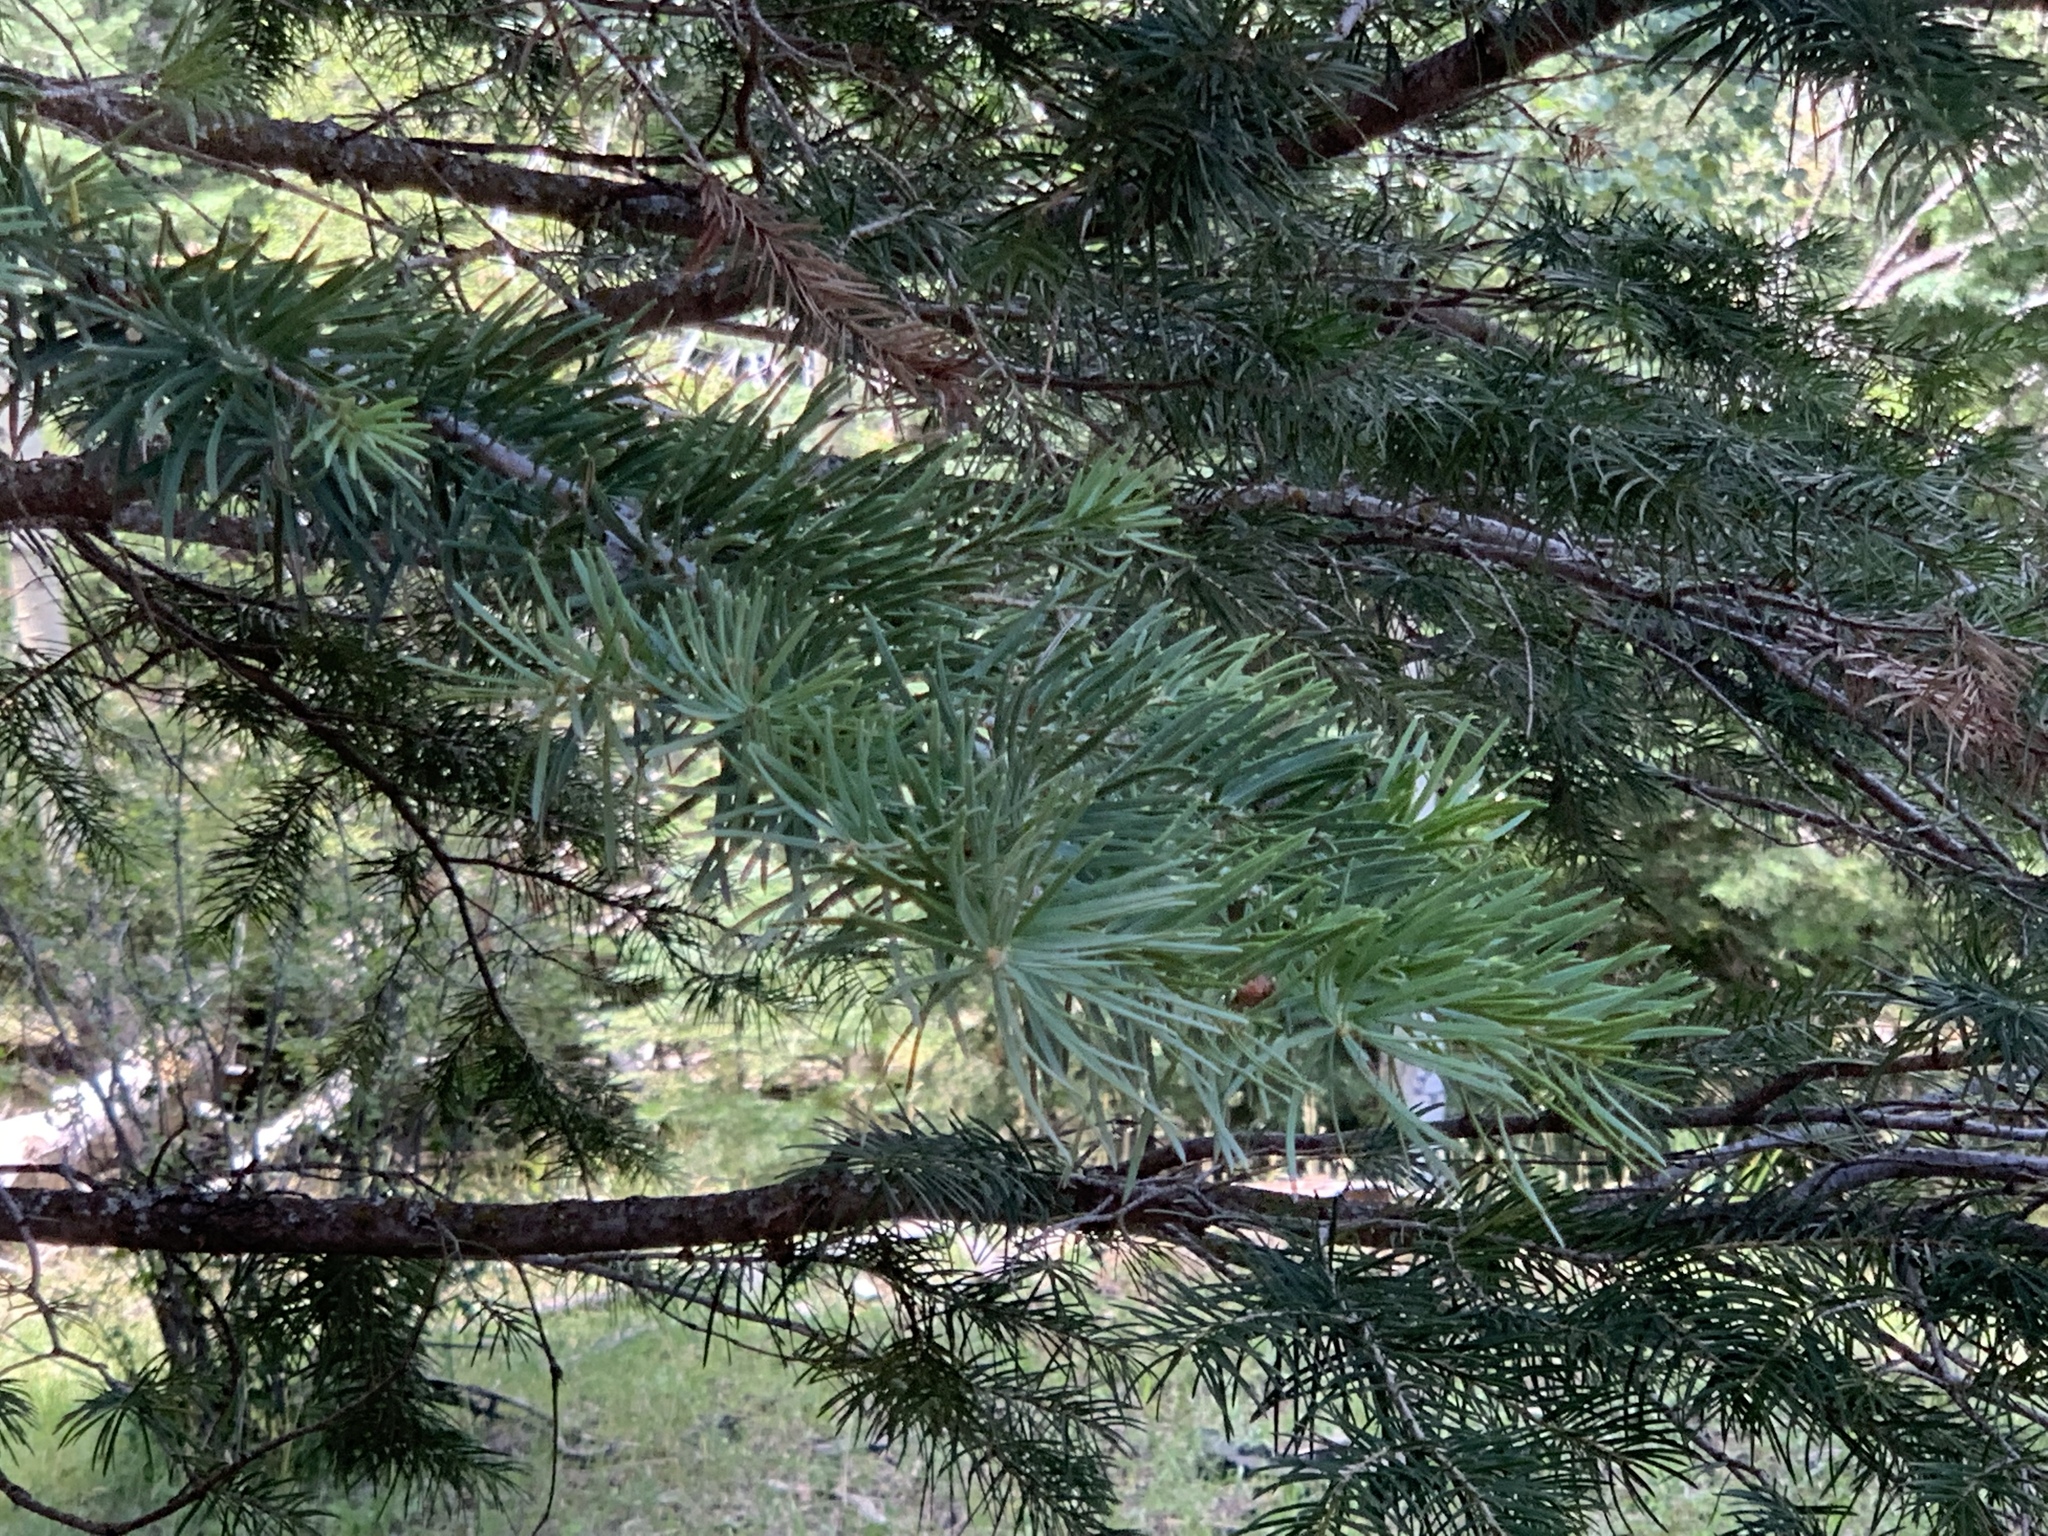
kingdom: Plantae
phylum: Tracheophyta
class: Pinopsida
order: Pinales
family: Pinaceae
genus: Abies
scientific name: Abies concolor
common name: Colorado fir
